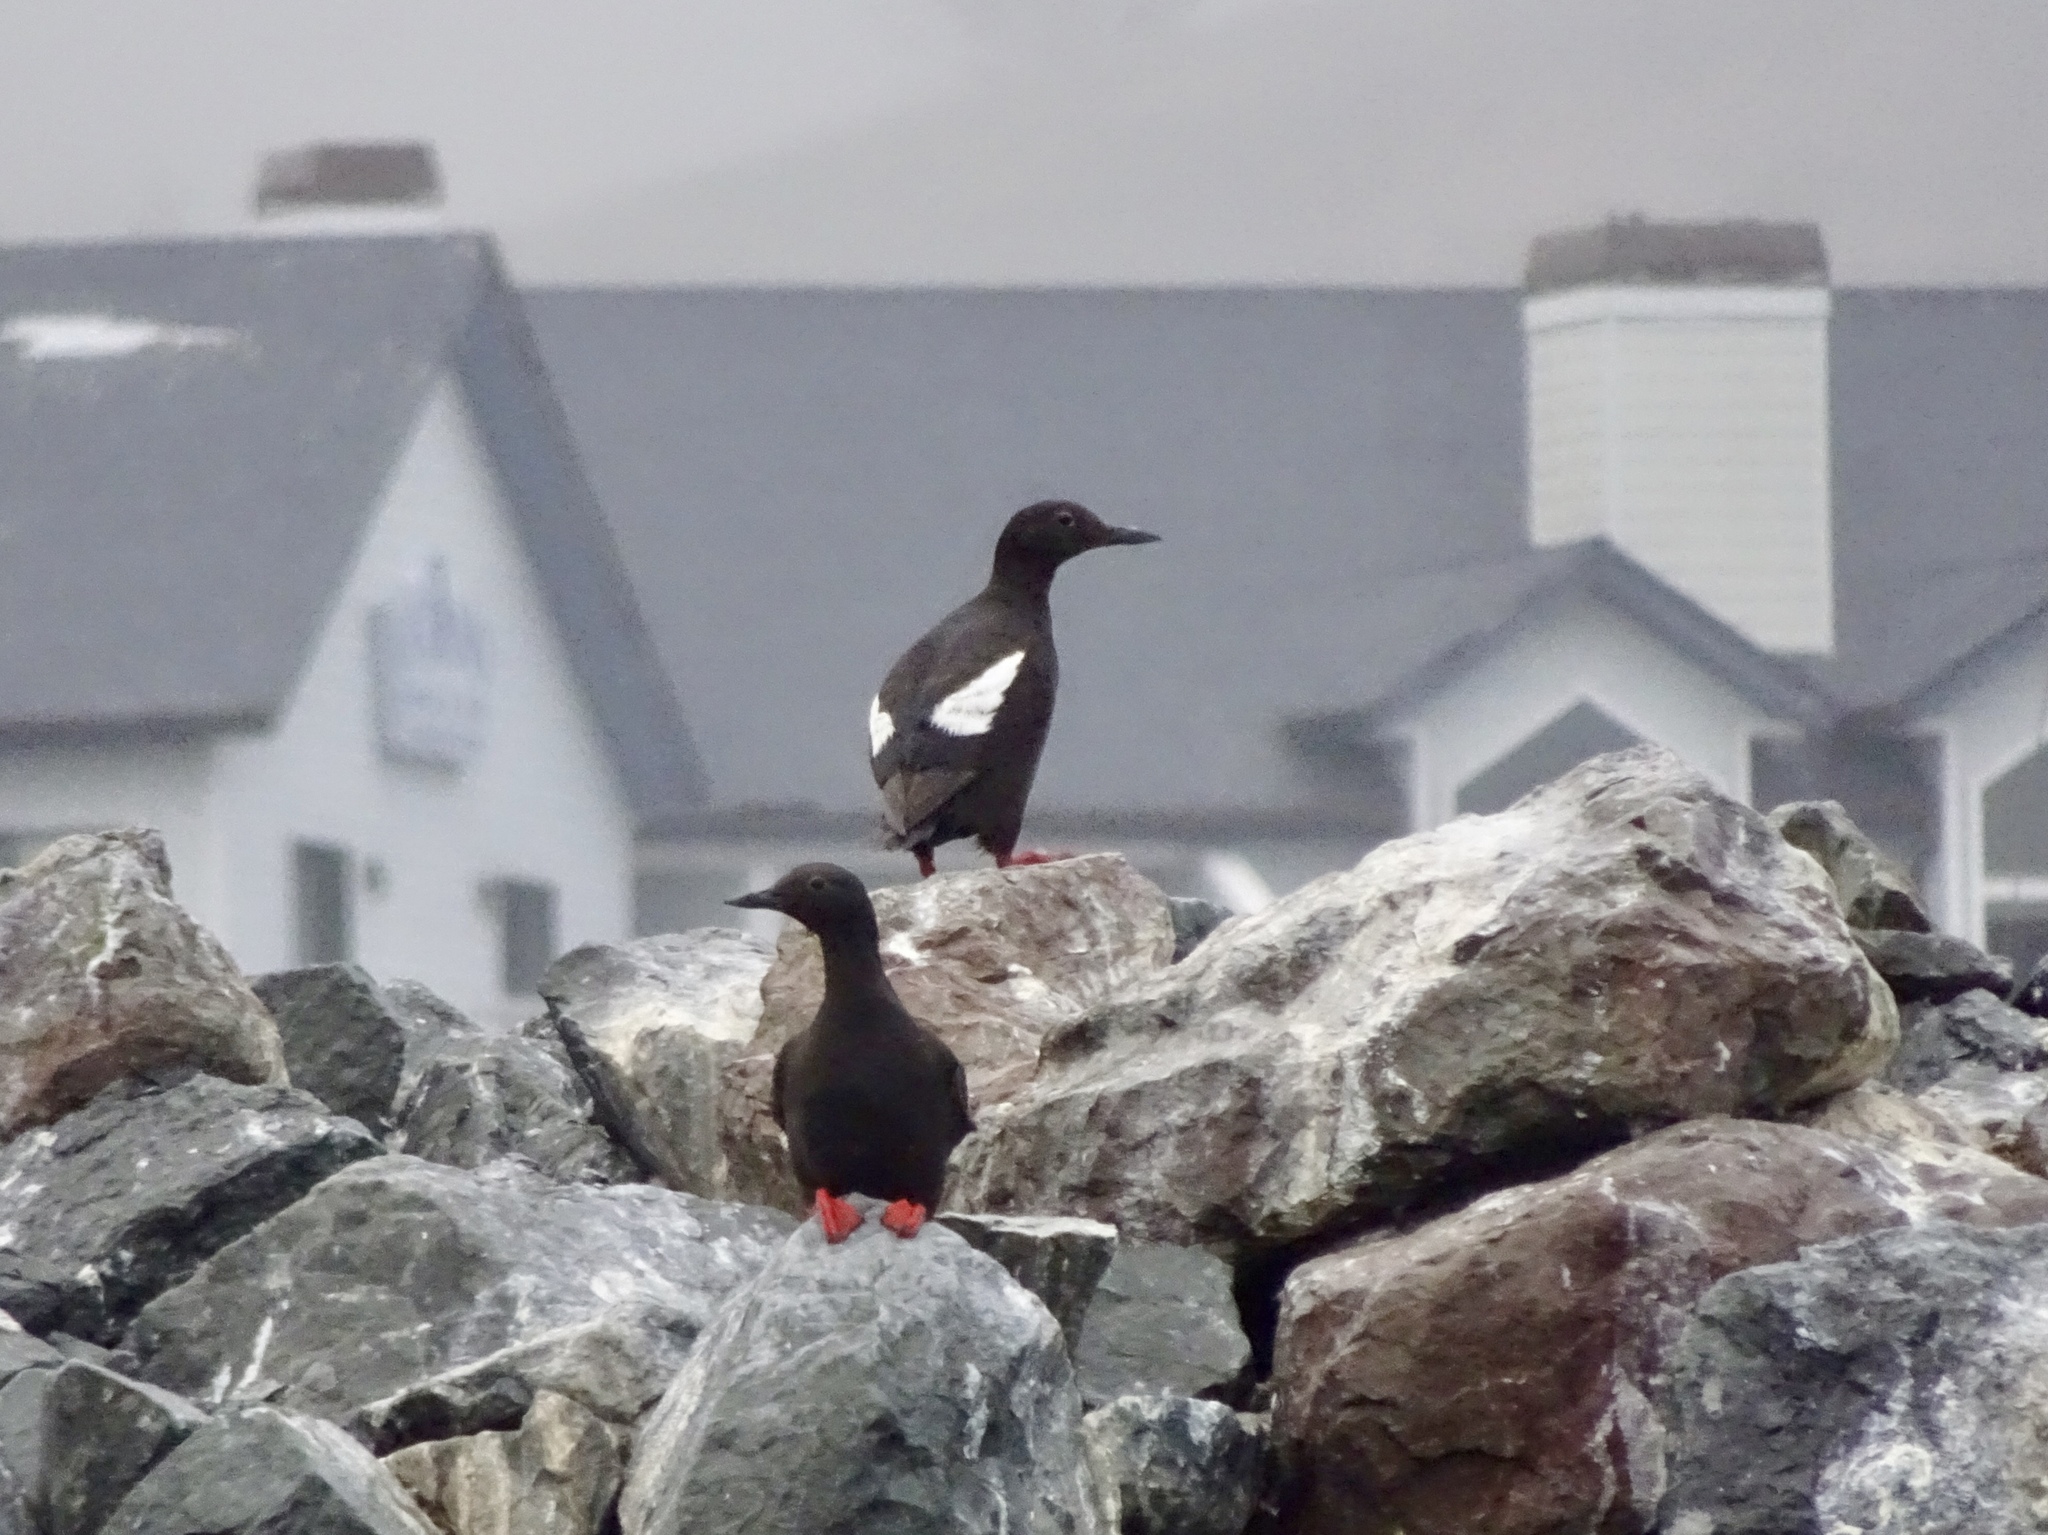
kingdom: Animalia
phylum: Chordata
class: Aves
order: Charadriiformes
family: Alcidae
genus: Cepphus
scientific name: Cepphus columba
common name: Pigeon guillemot
